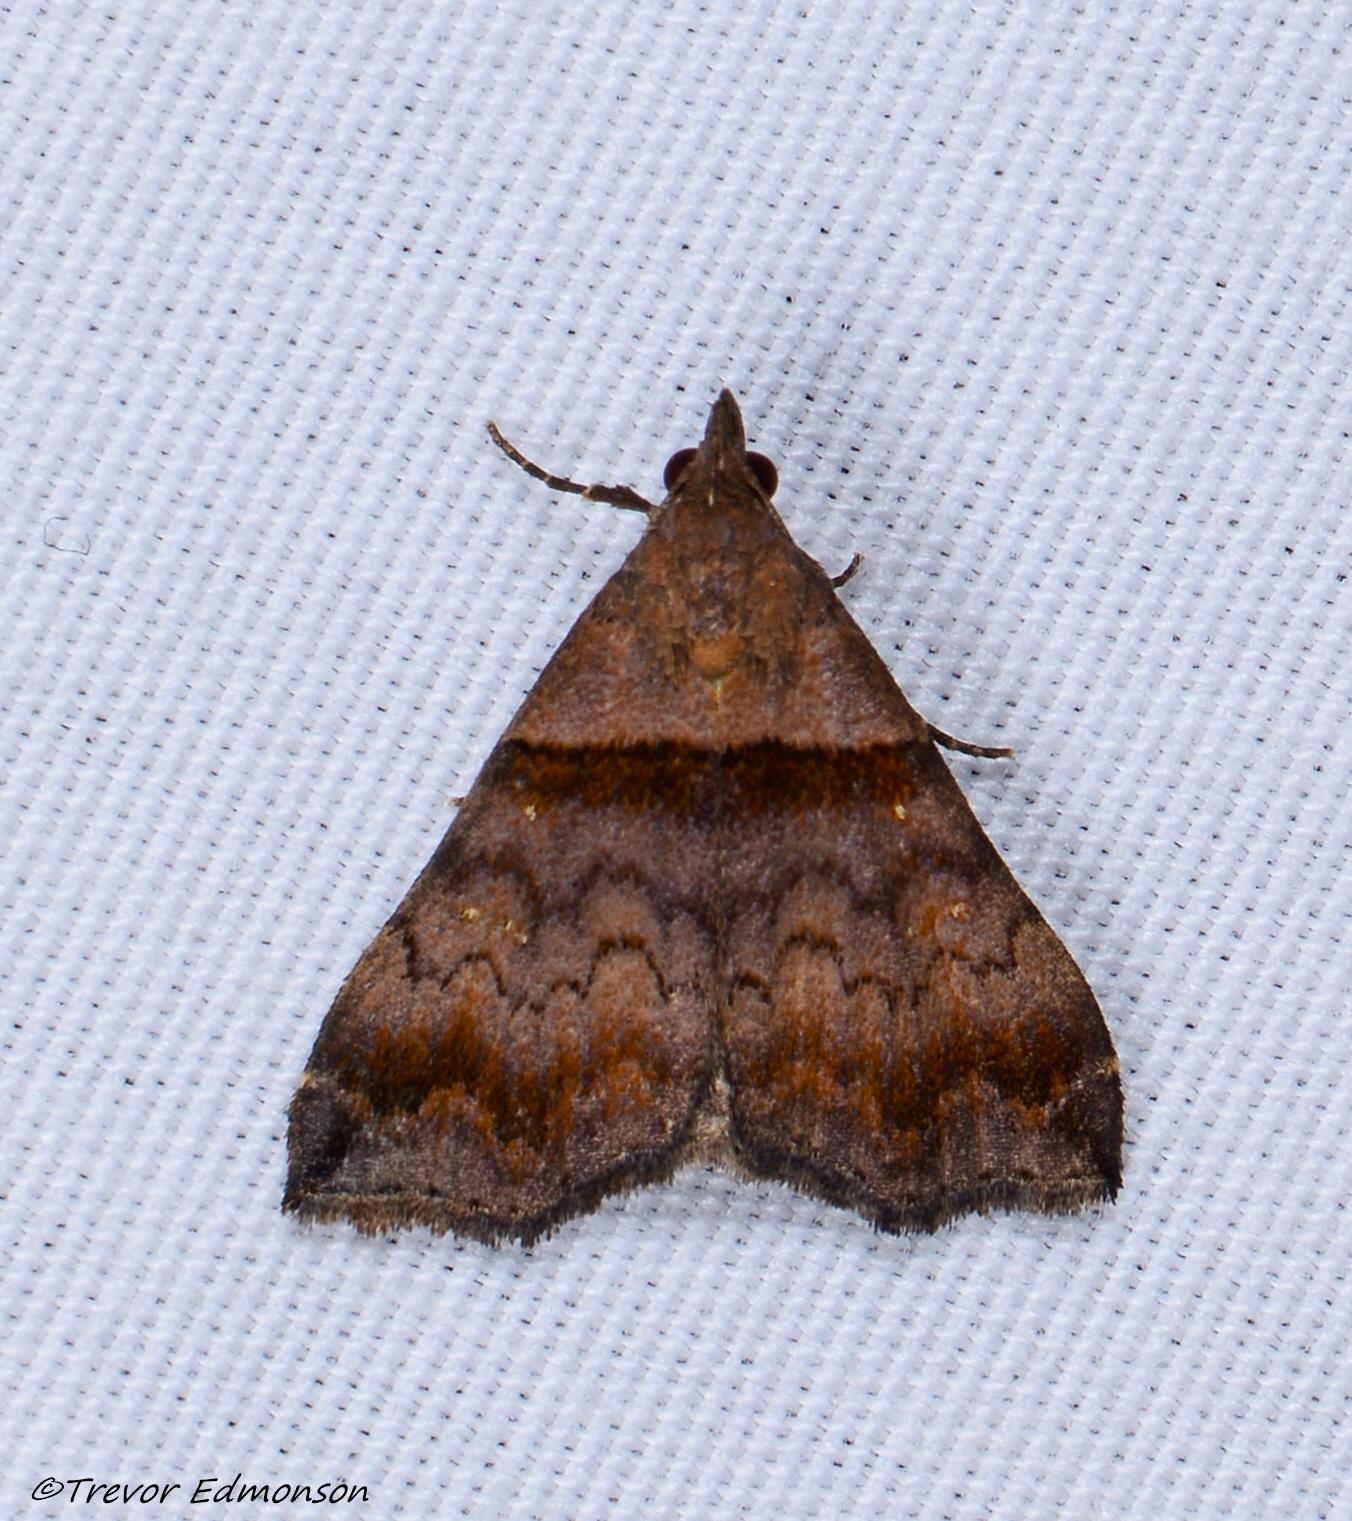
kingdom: Animalia
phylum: Arthropoda
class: Insecta
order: Lepidoptera
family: Erebidae
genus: Lascoria
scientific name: Lascoria ambigualis
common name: Ambiguous moth
